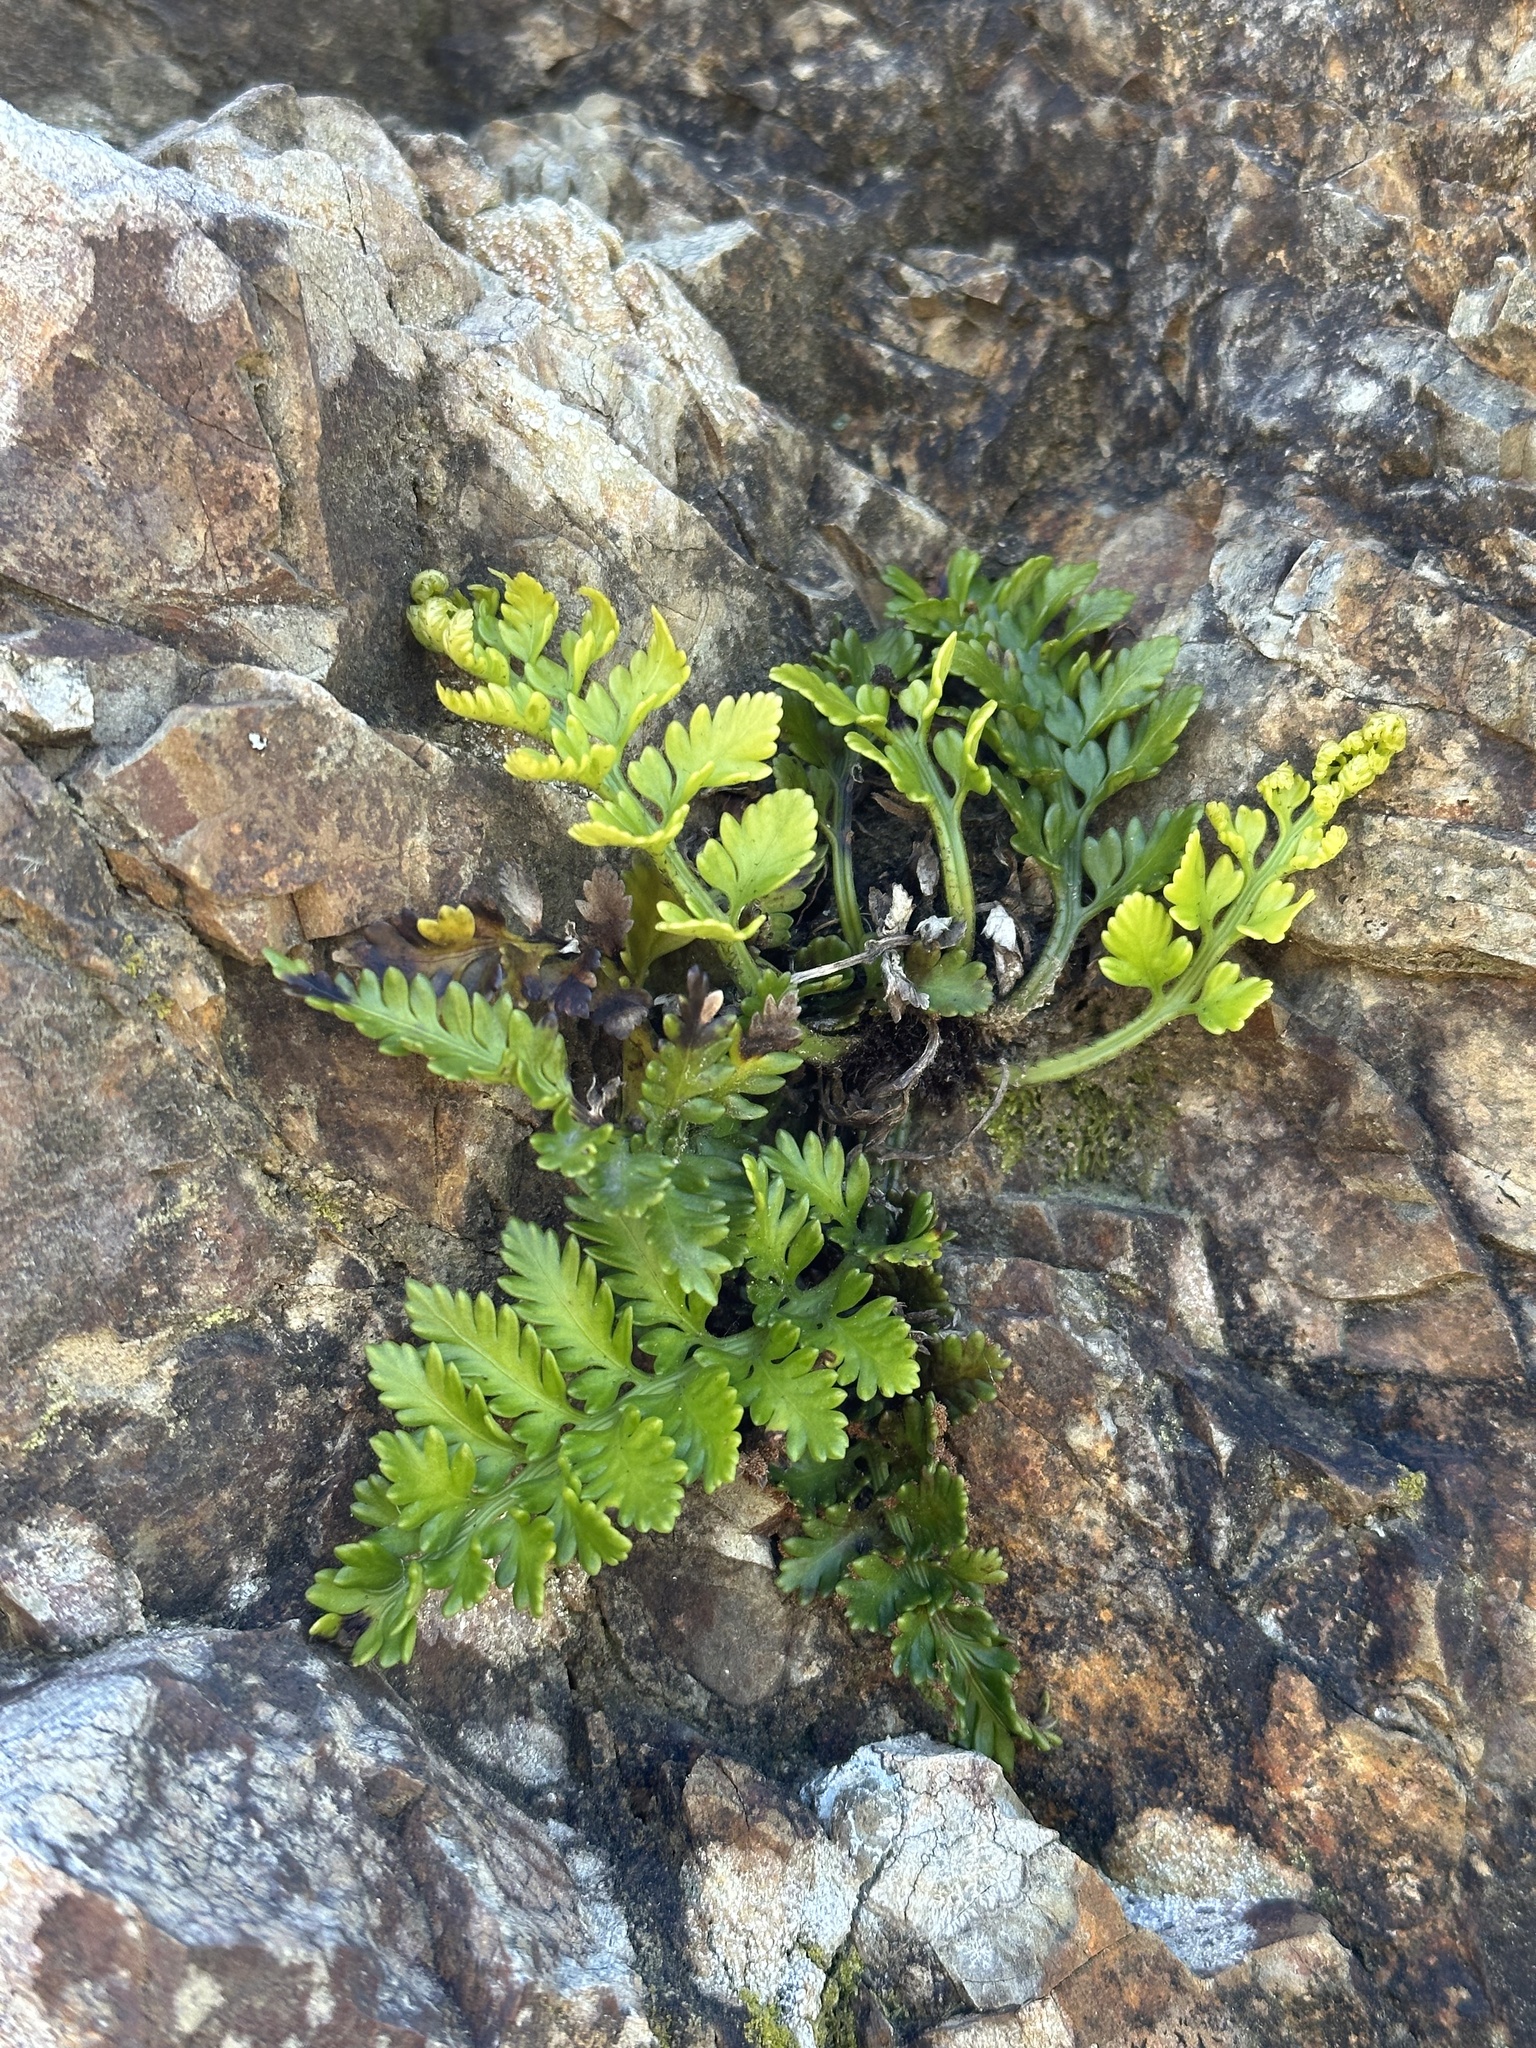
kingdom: Plantae
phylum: Tracheophyta
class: Polypodiopsida
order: Polypodiales
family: Aspleniaceae
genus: Asplenium
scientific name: Asplenium appendiculatum
